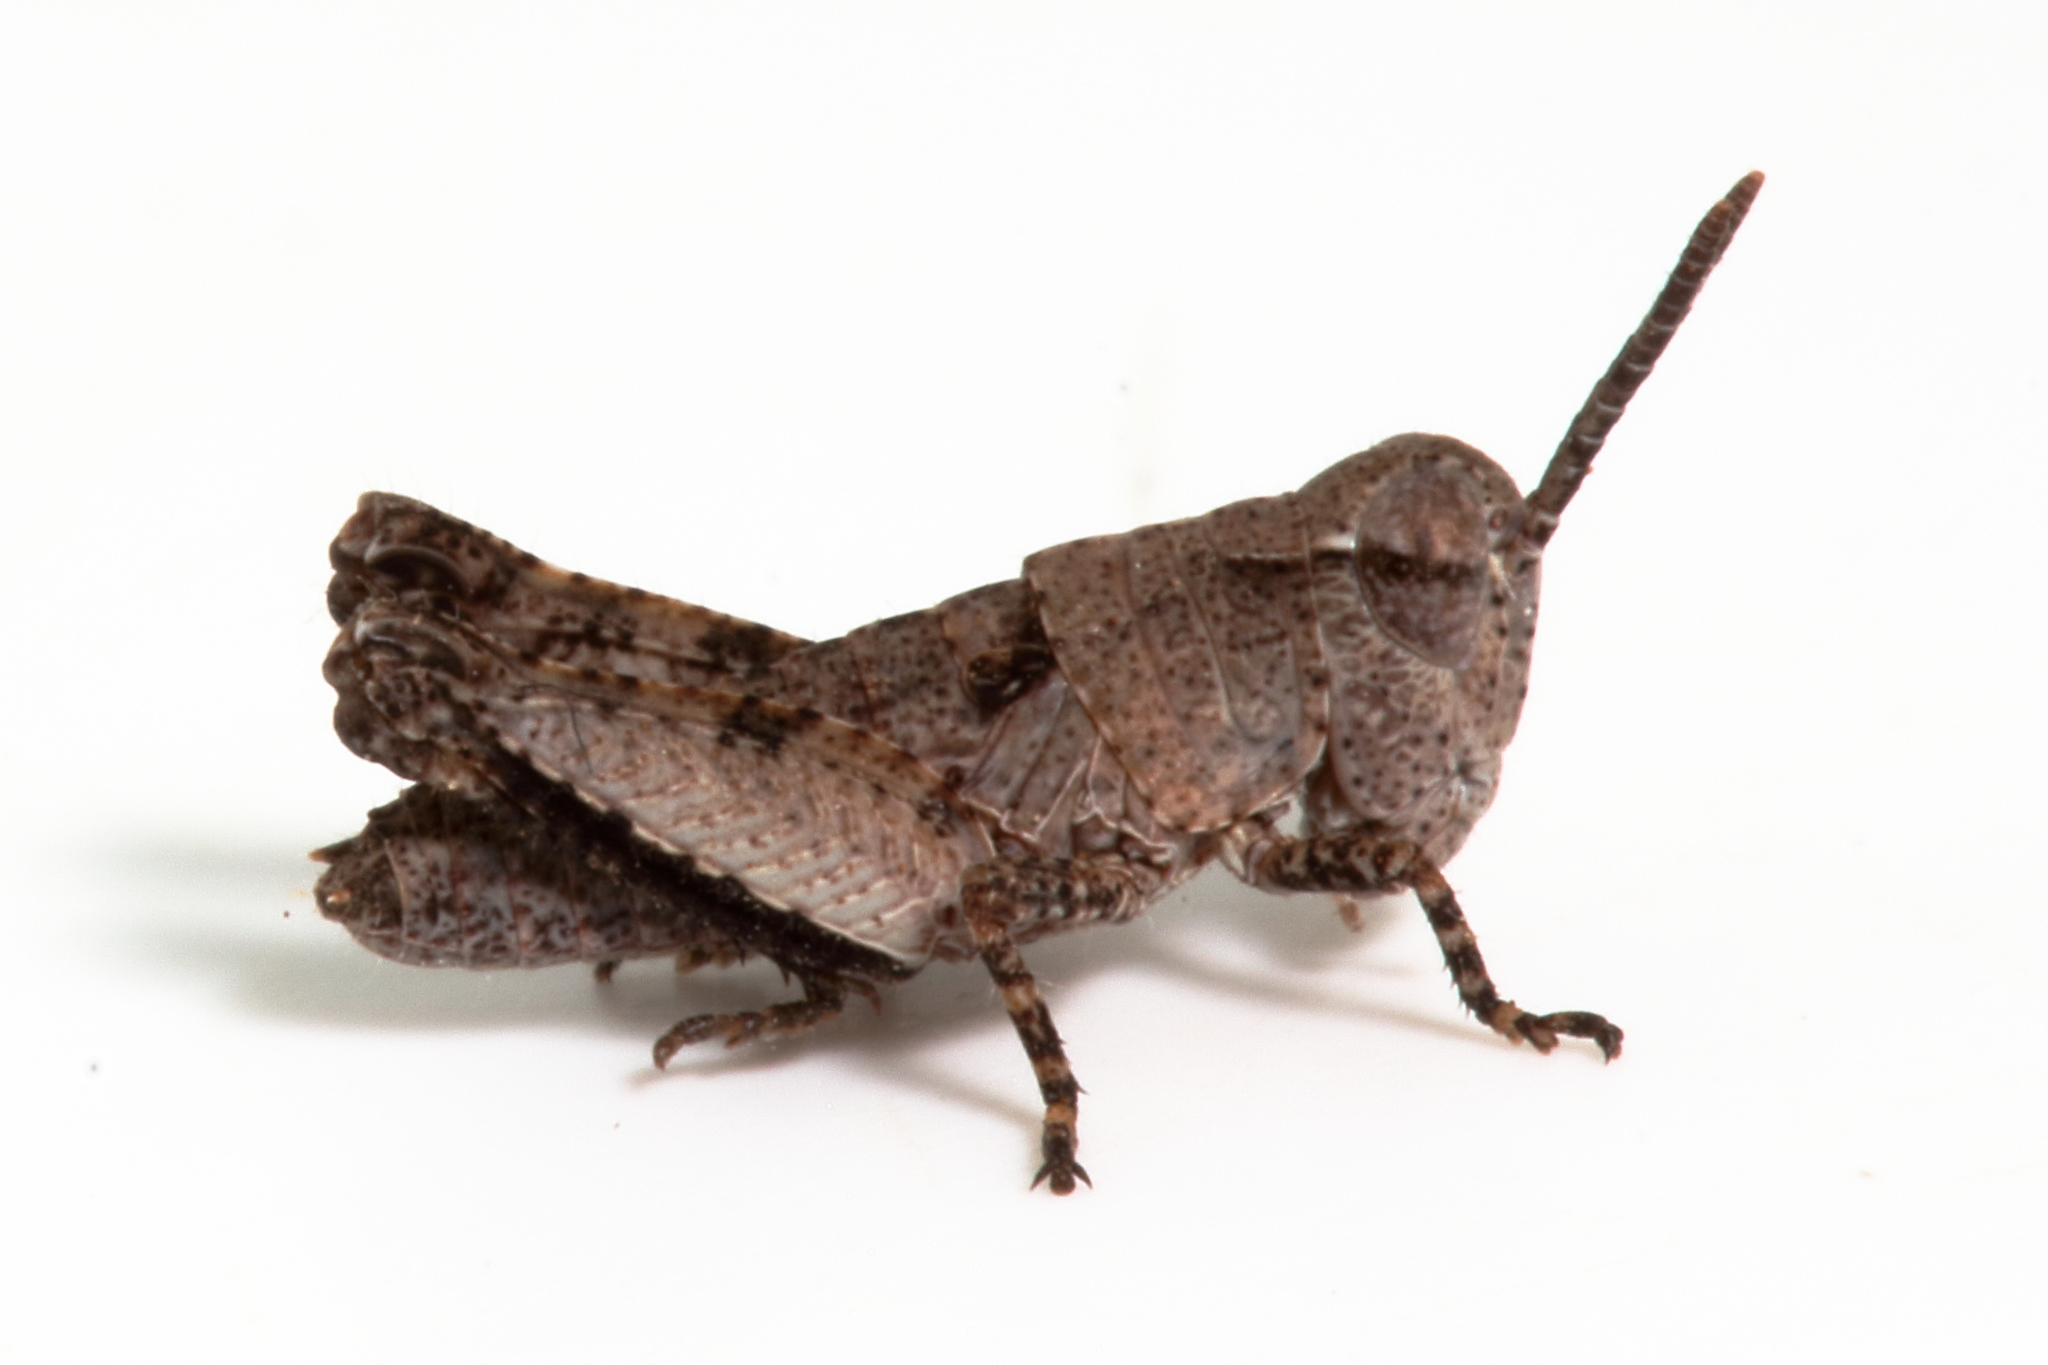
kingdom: Animalia
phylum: Arthropoda
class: Insecta
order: Orthoptera
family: Acrididae
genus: Minyacris
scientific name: Minyacris nana
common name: Tiny grasshopper
